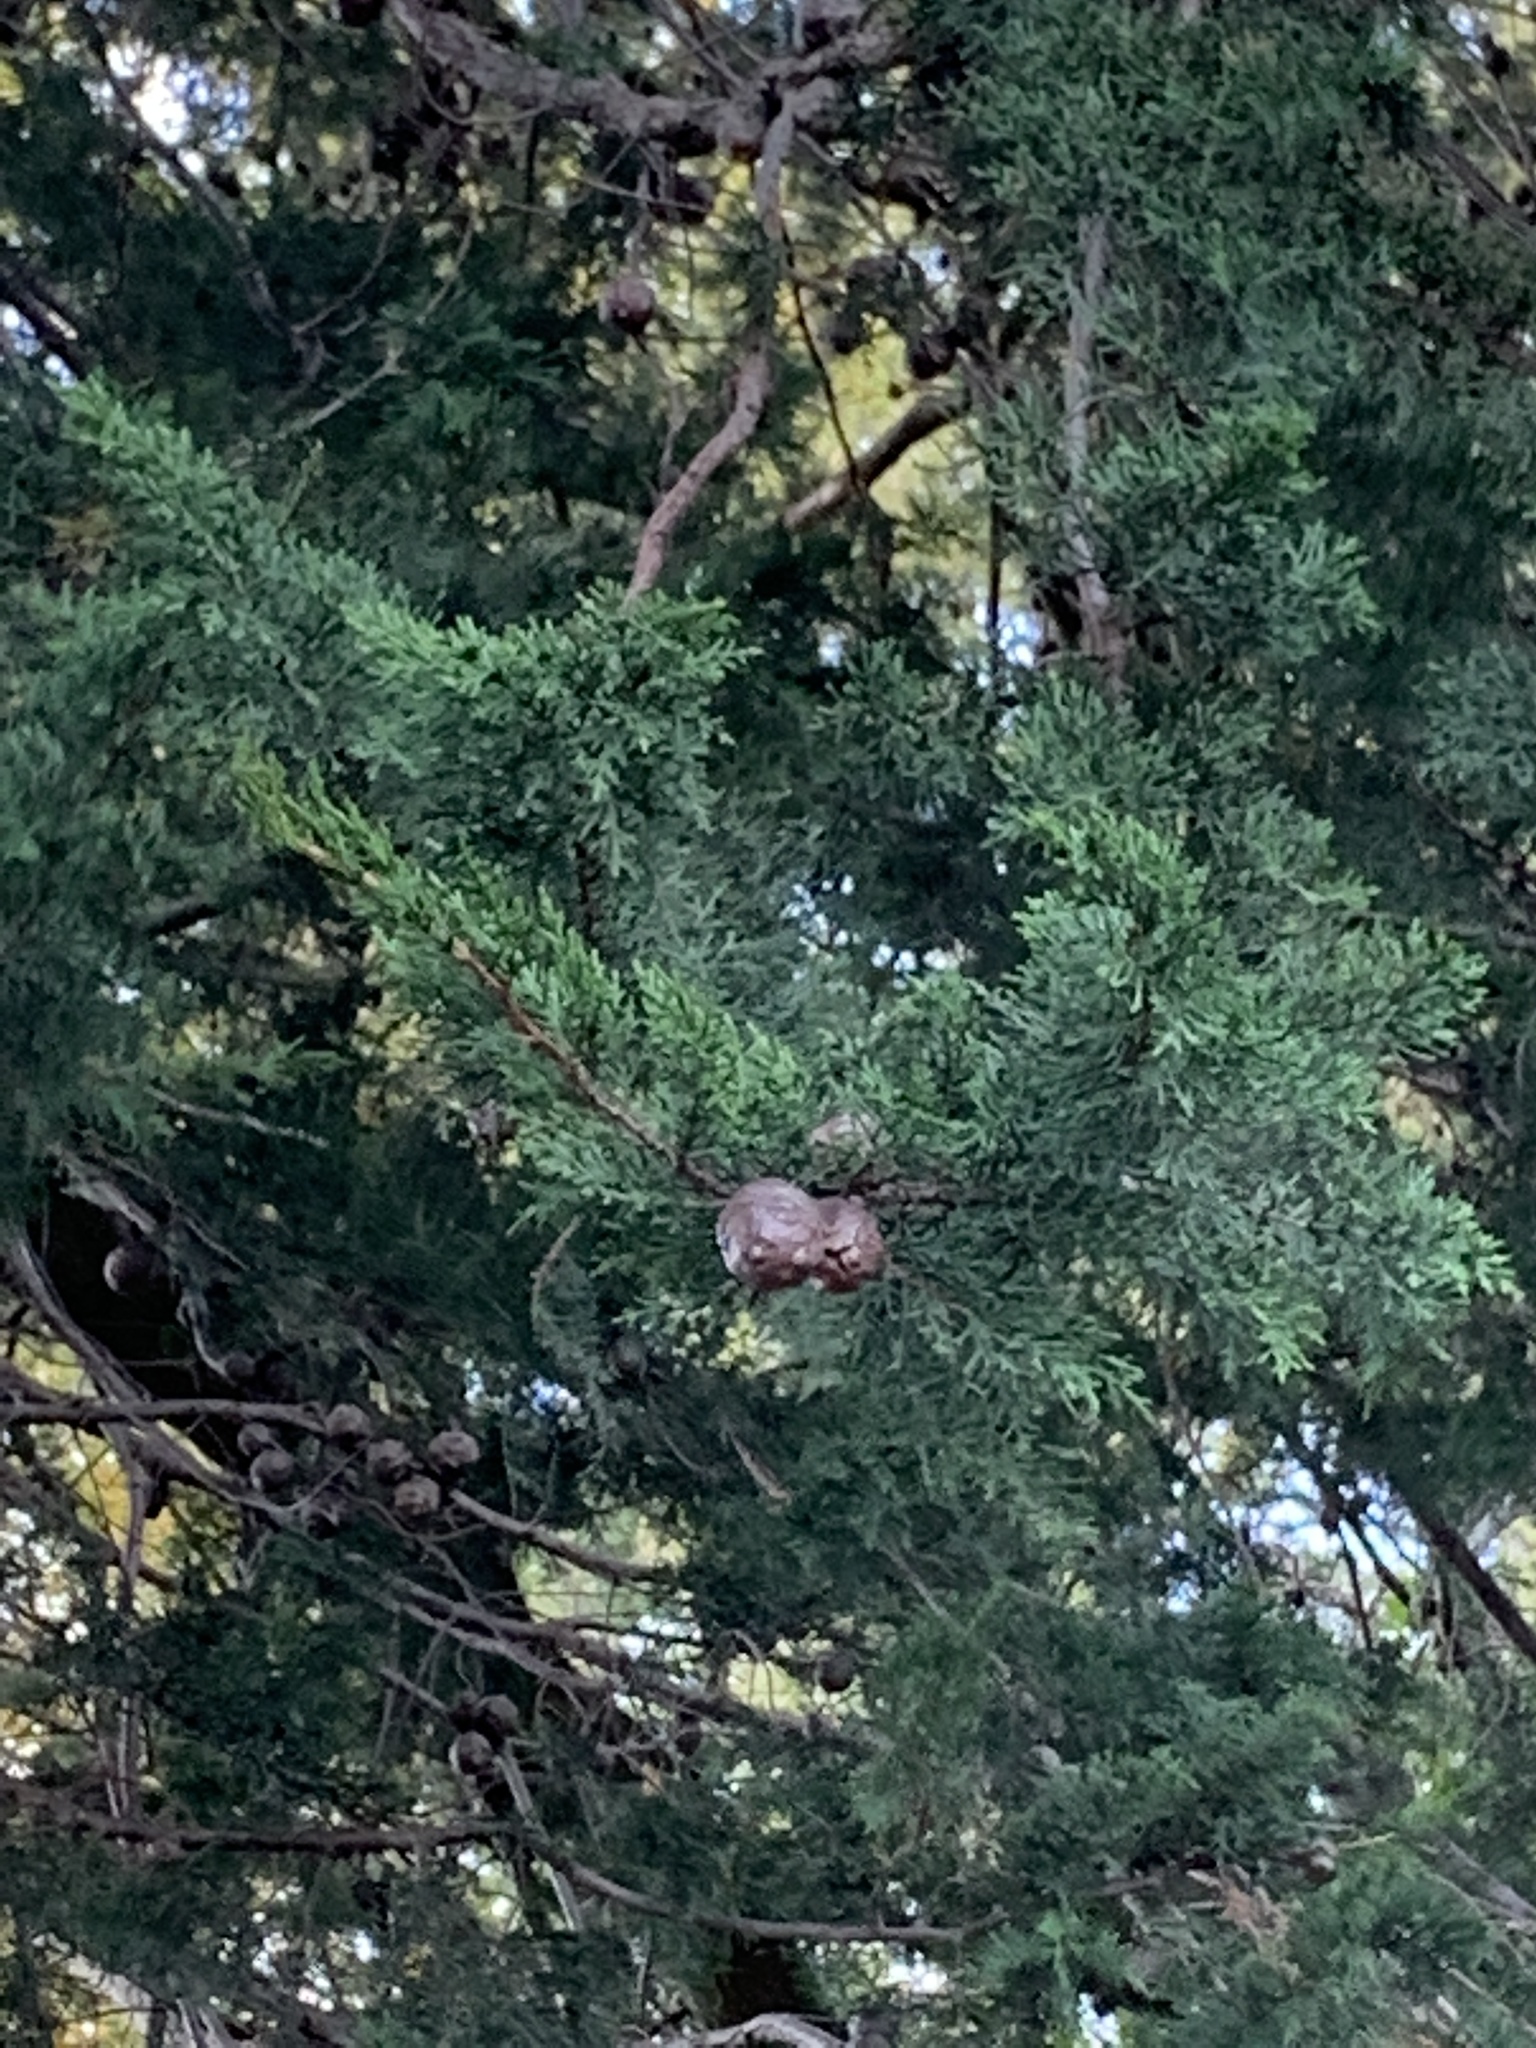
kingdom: Plantae
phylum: Tracheophyta
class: Pinopsida
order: Pinales
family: Cupressaceae
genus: Cupressus
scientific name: Cupressus macrocarpa
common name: Monterey cypress
